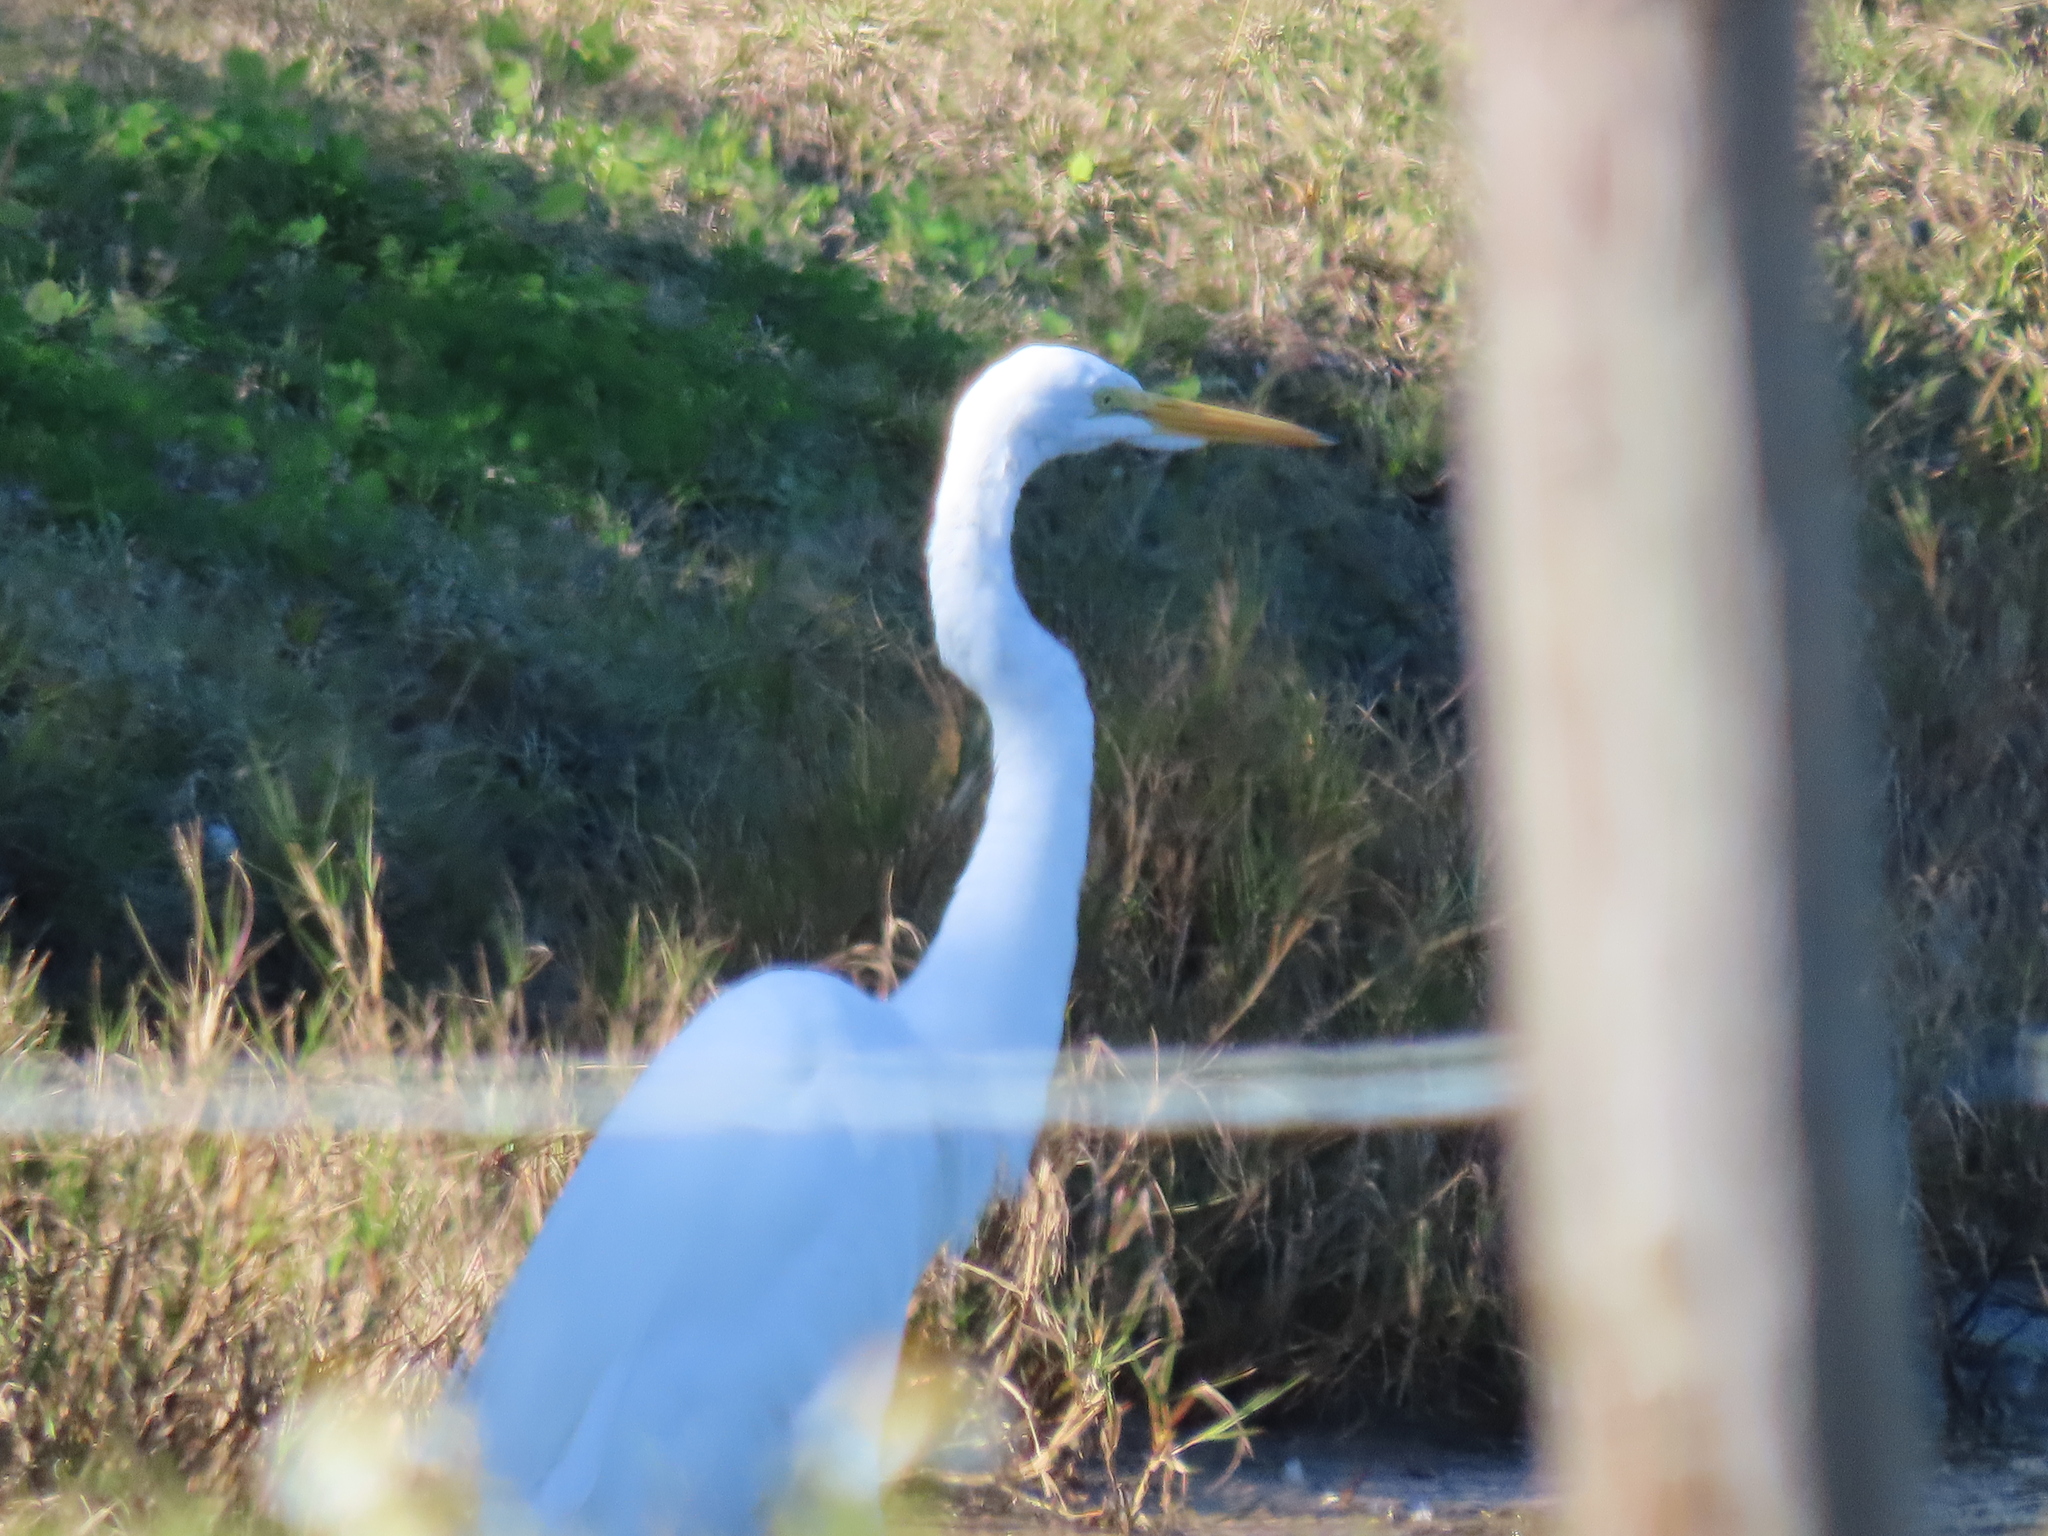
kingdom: Animalia
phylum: Chordata
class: Aves
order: Pelecaniformes
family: Ardeidae
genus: Ardea
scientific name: Ardea alba
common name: Great egret
